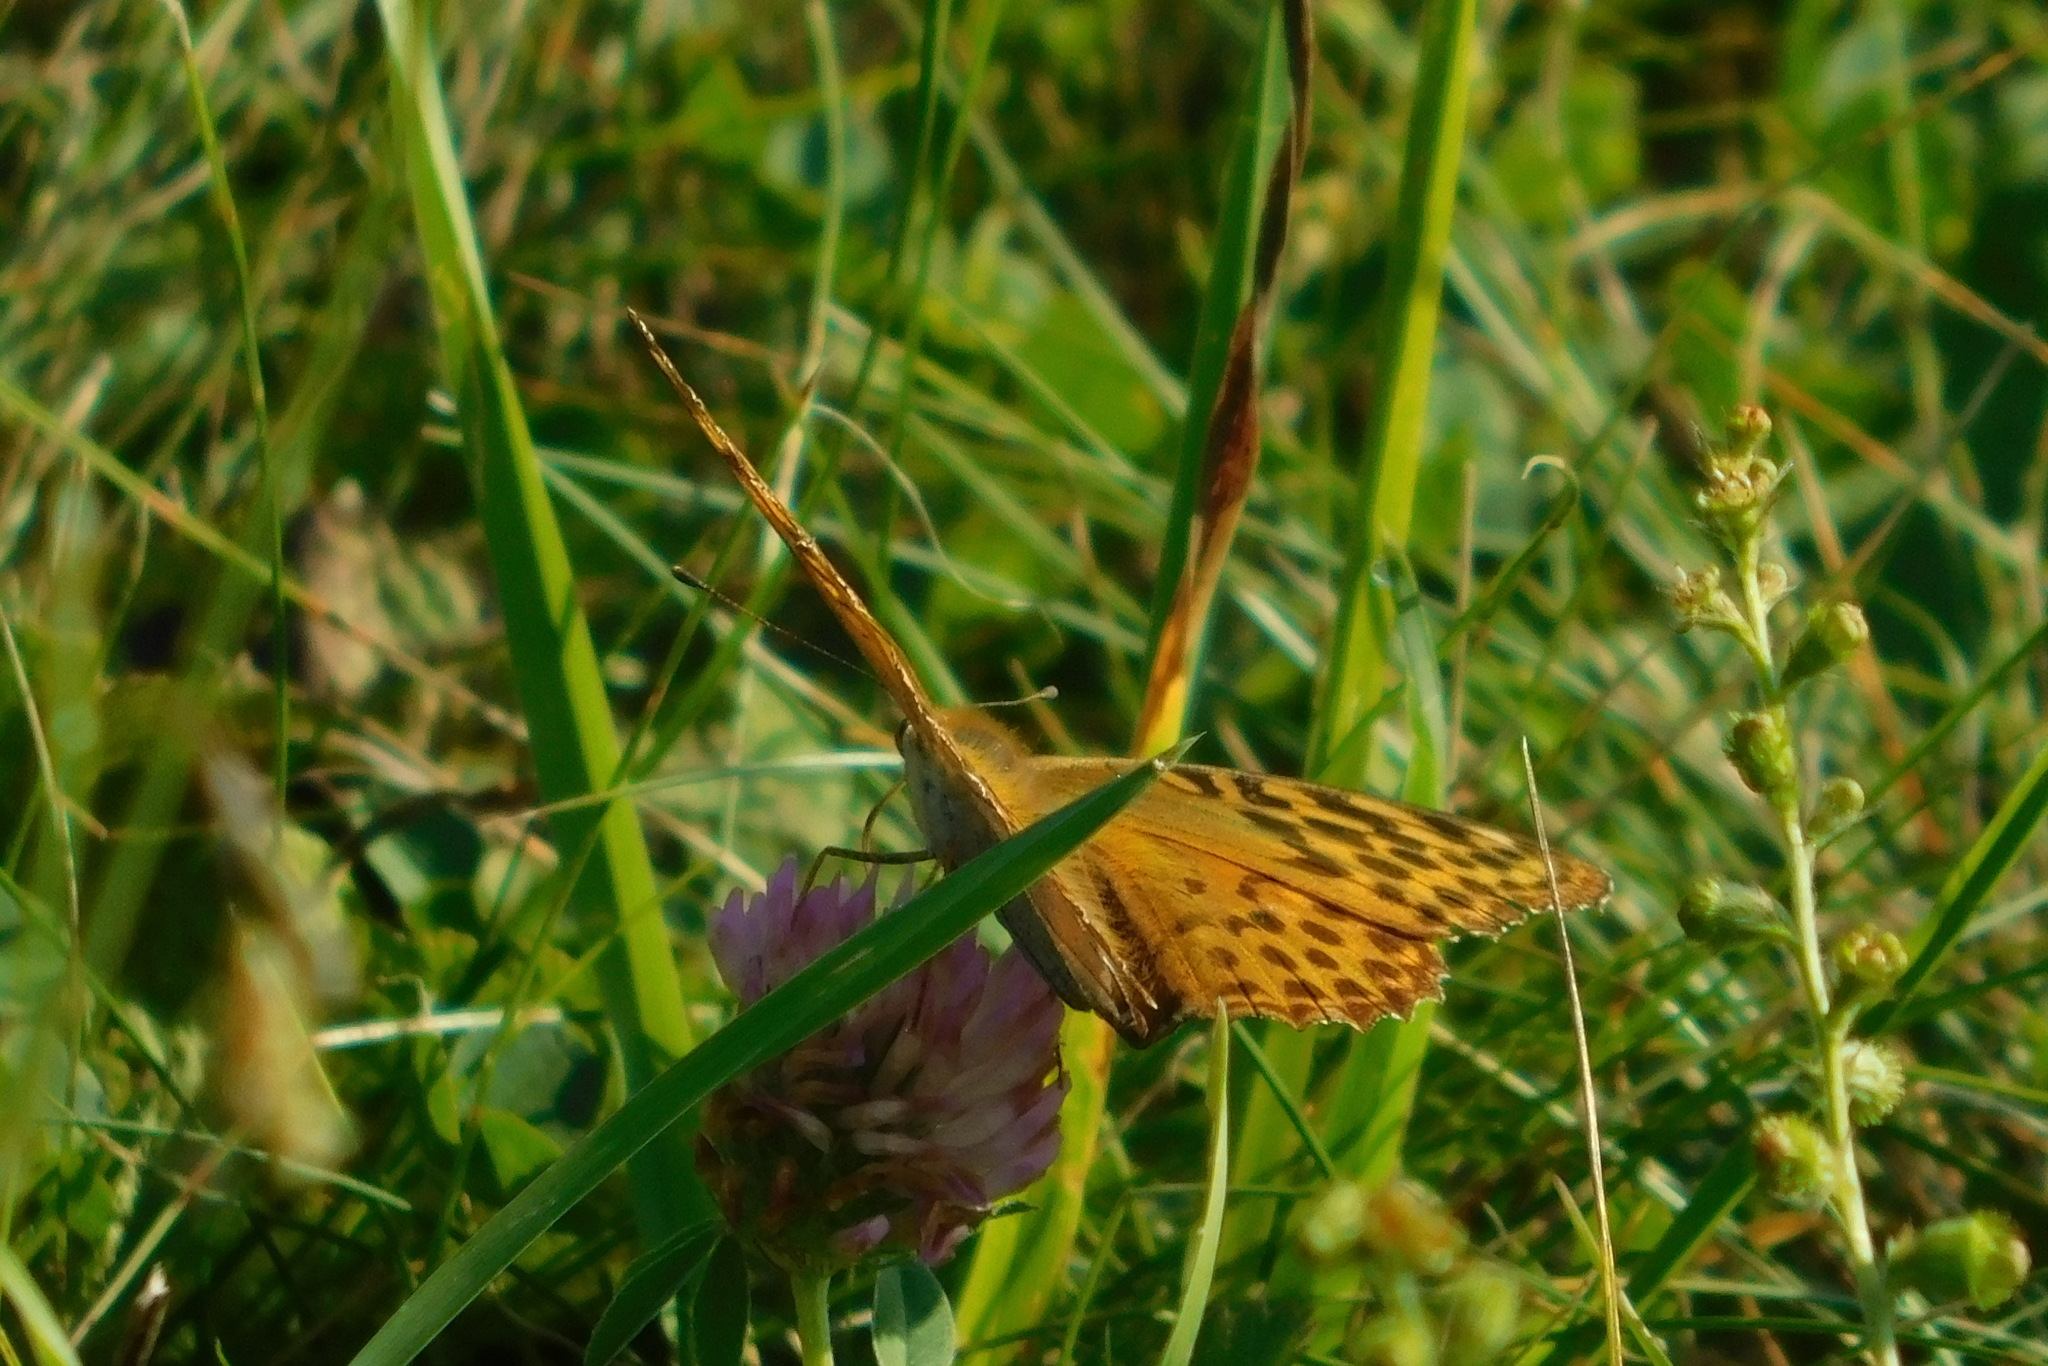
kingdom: Animalia
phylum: Arthropoda
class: Insecta
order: Lepidoptera
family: Nymphalidae
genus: Argynnis
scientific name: Argynnis paphia
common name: Silver-washed fritillary
